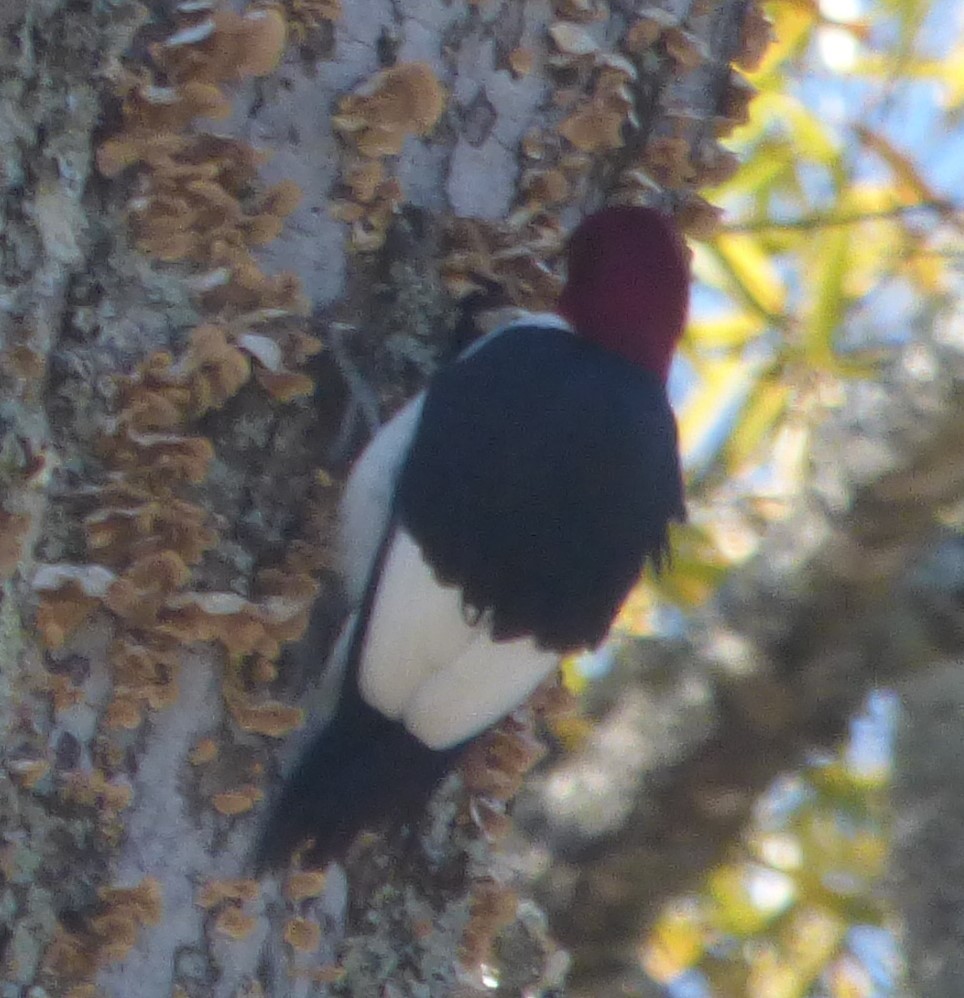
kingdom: Animalia
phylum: Chordata
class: Aves
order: Piciformes
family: Picidae
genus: Melanerpes
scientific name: Melanerpes erythrocephalus
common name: Red-headed woodpecker
